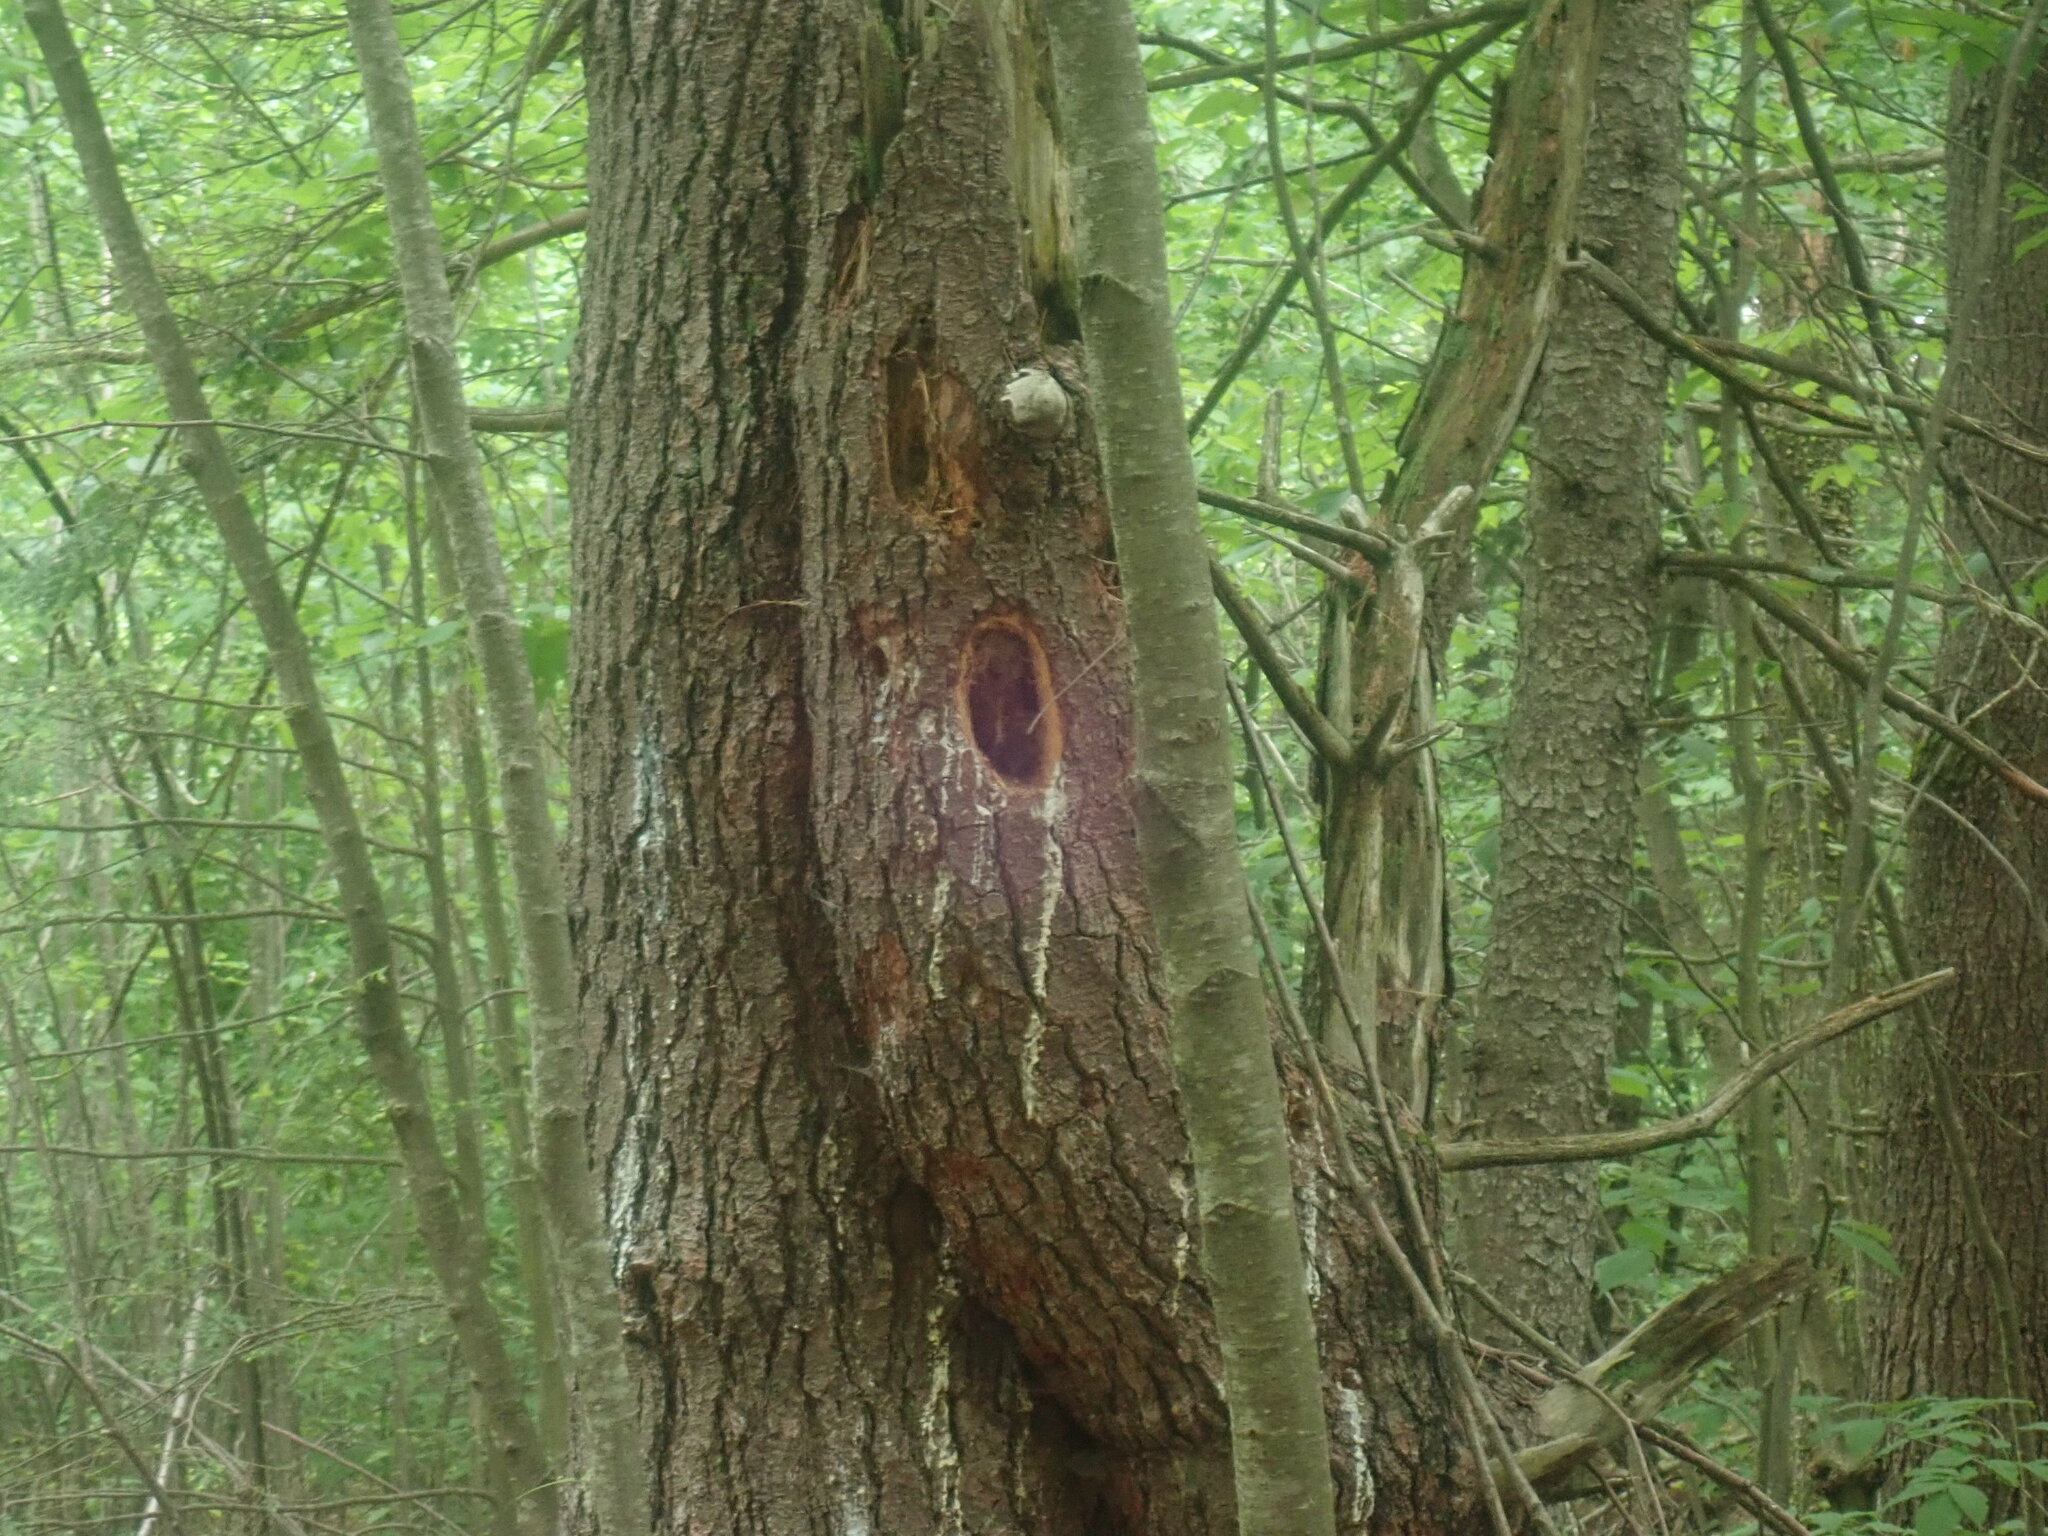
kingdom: Animalia
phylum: Chordata
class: Aves
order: Piciformes
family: Picidae
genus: Dryocopus
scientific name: Dryocopus pileatus
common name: Pileated woodpecker
